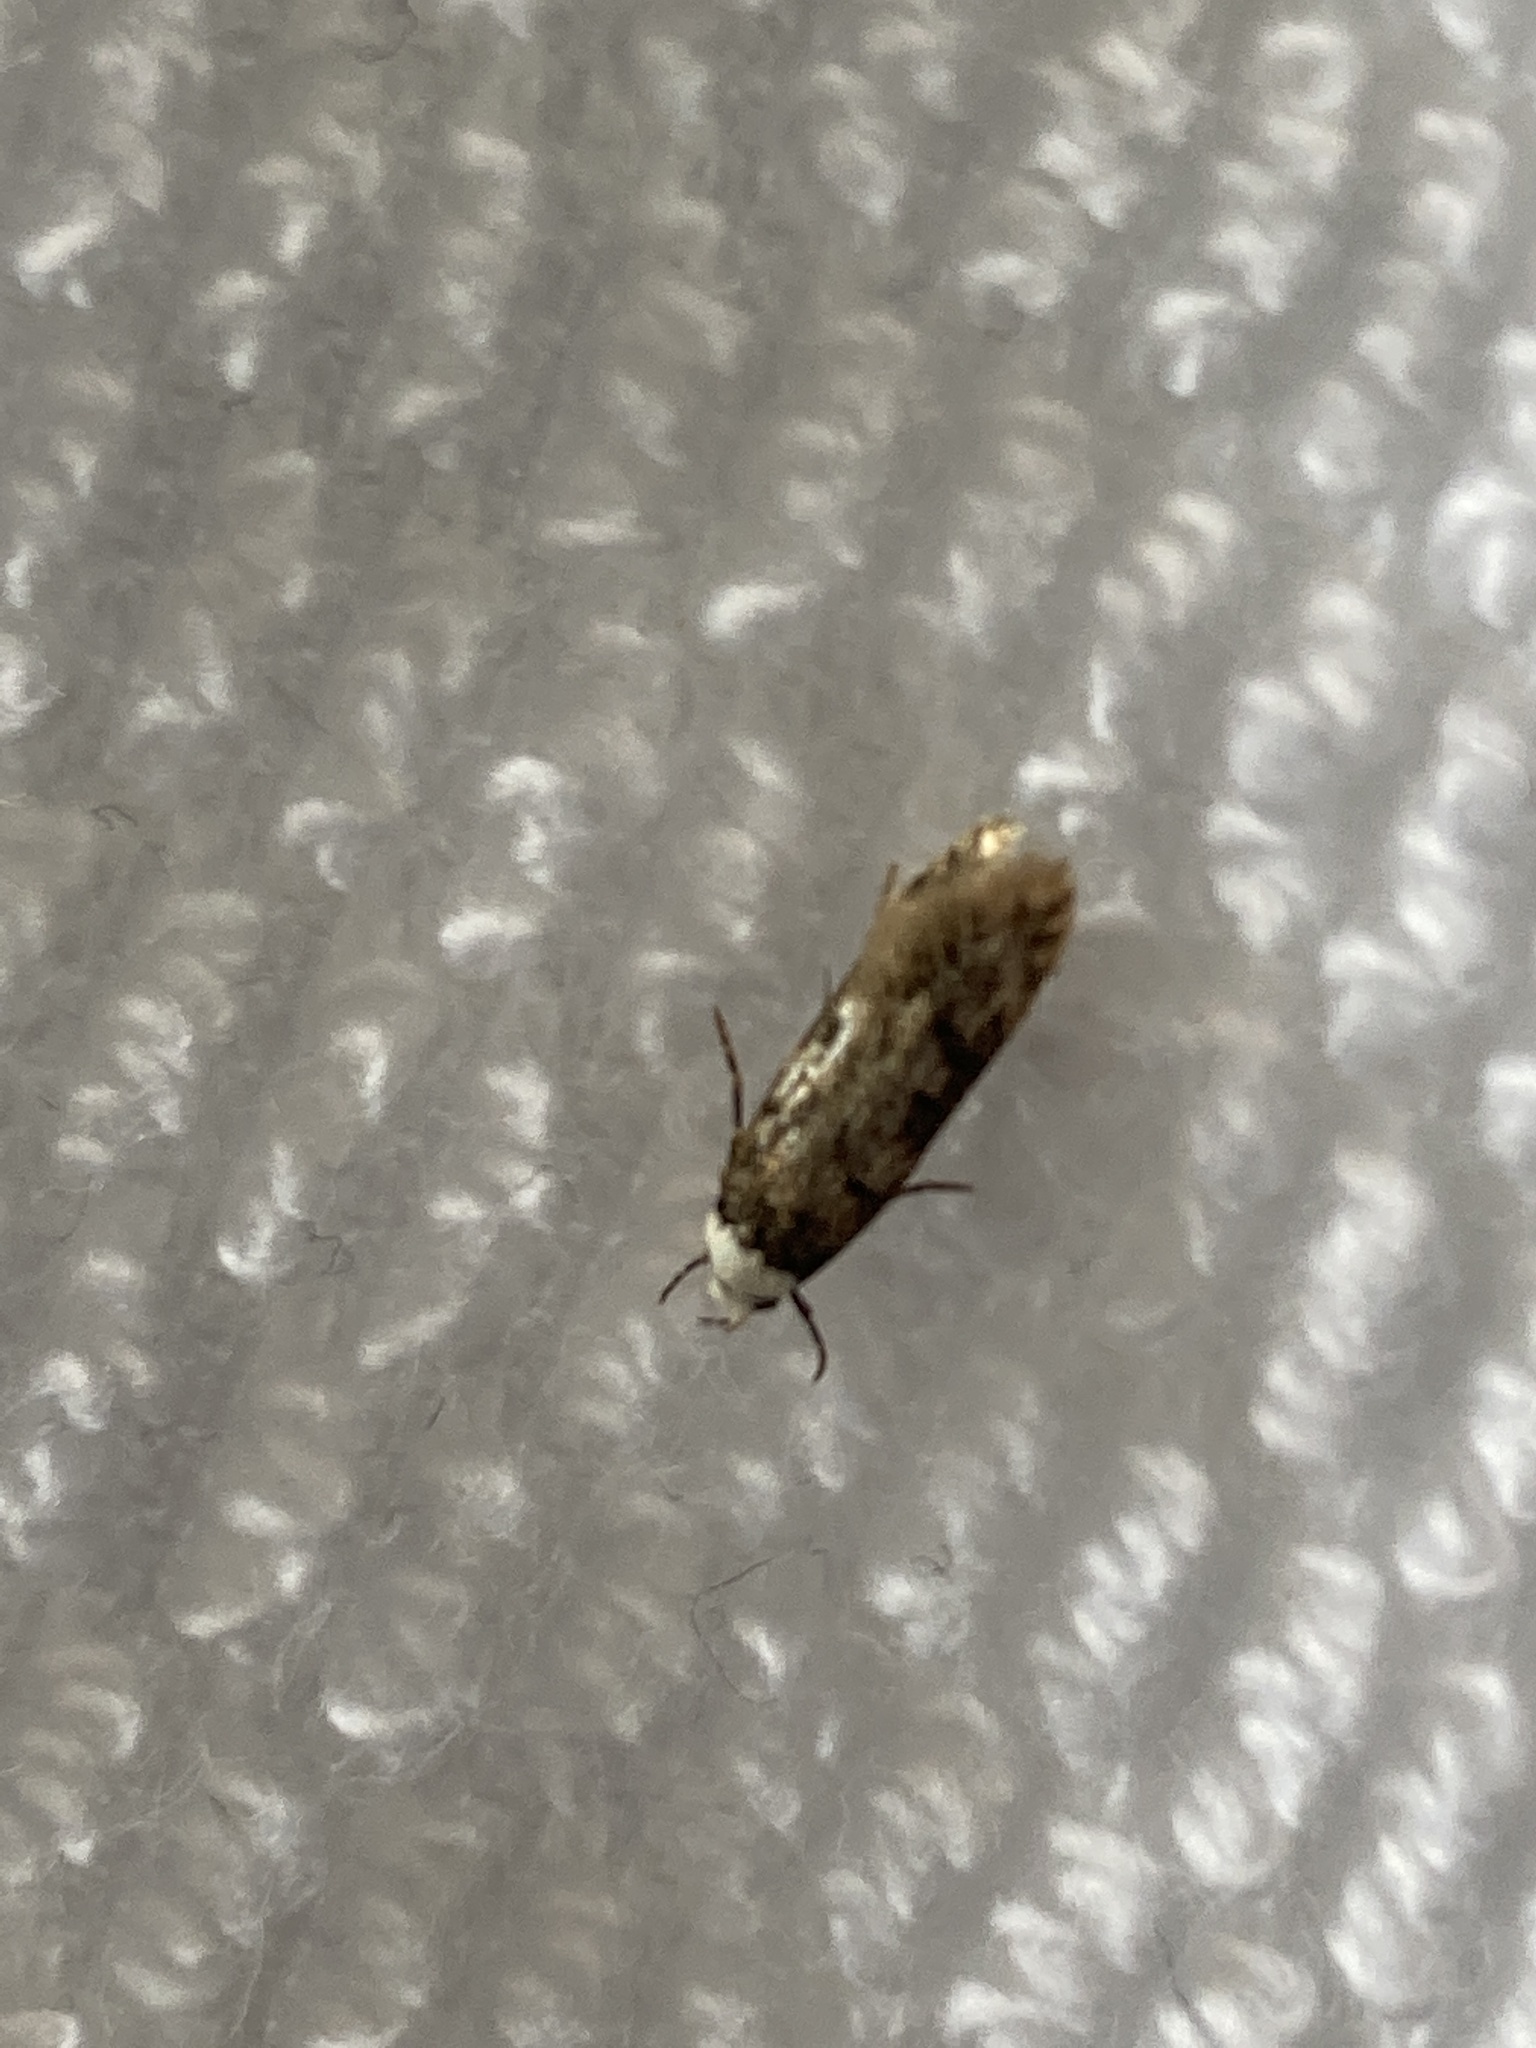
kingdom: Animalia
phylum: Arthropoda
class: Insecta
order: Lepidoptera
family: Oecophoridae
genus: Endrosis
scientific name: Endrosis sarcitrella
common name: White-shouldered house moth
